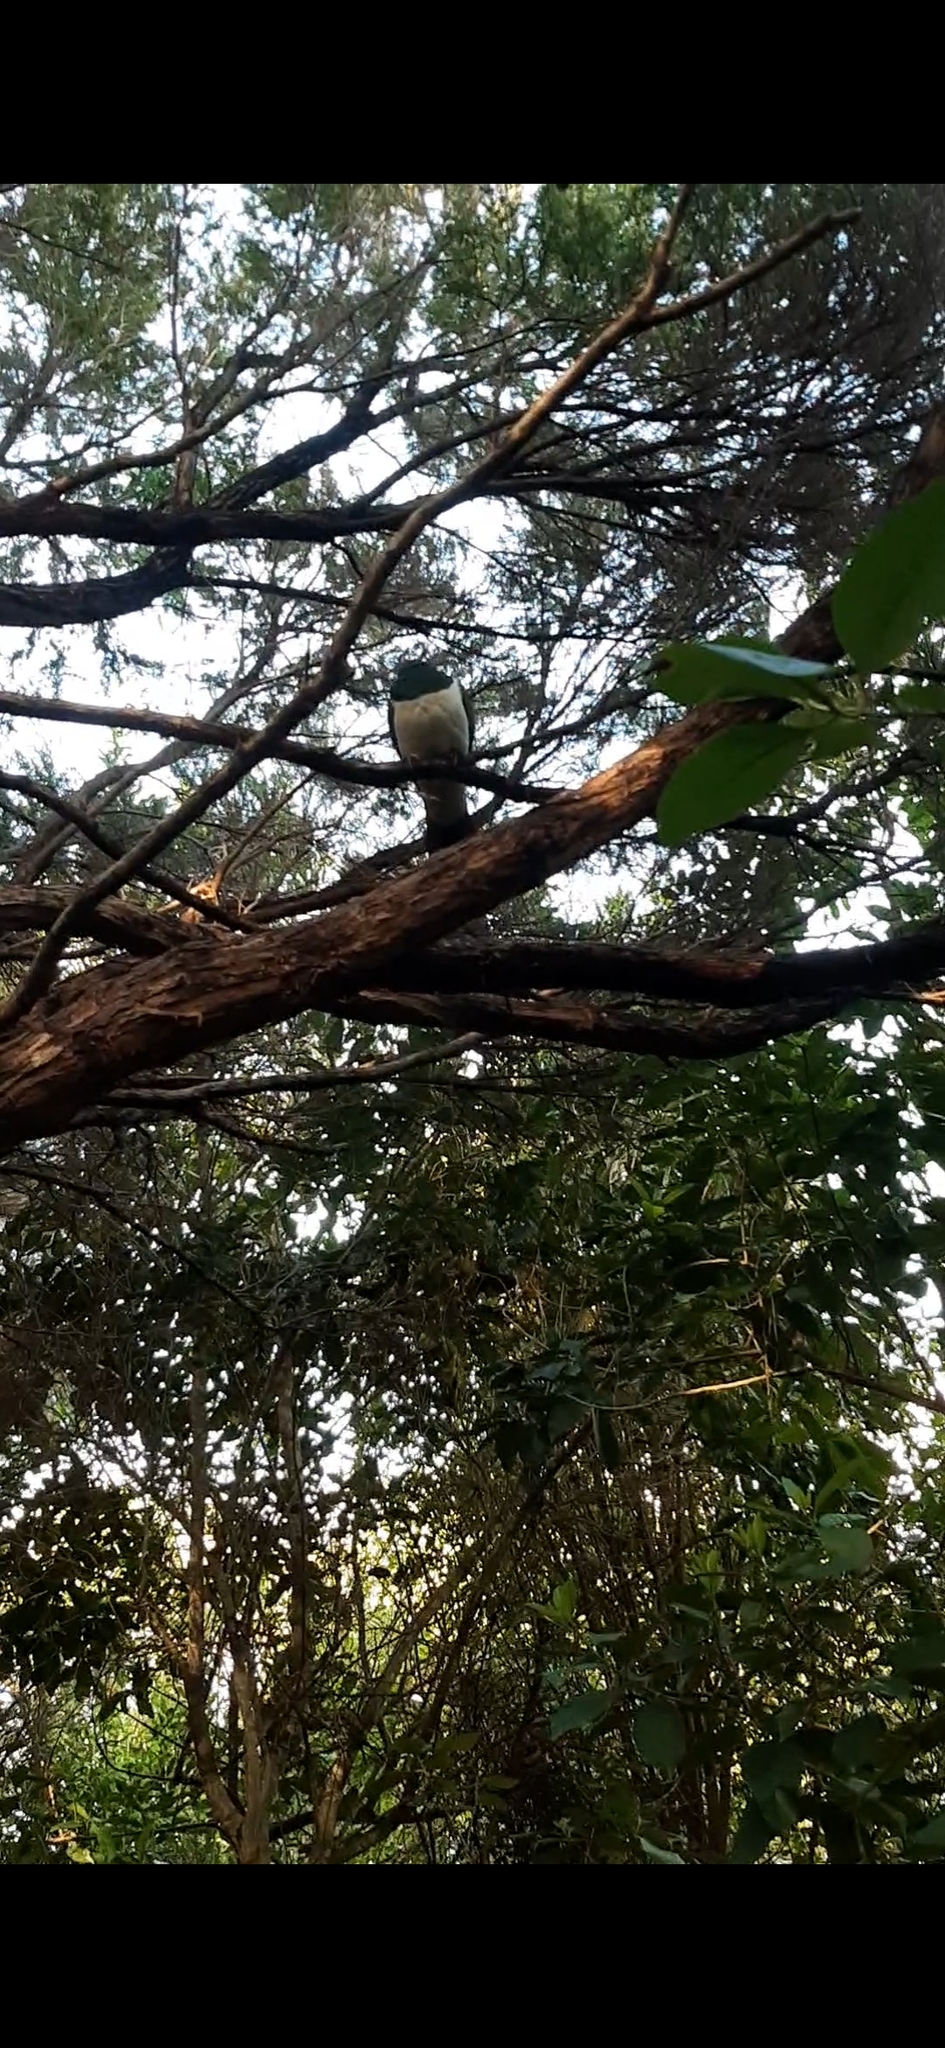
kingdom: Animalia
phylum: Chordata
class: Aves
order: Columbiformes
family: Columbidae
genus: Hemiphaga
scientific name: Hemiphaga novaeseelandiae
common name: New zealand pigeon
